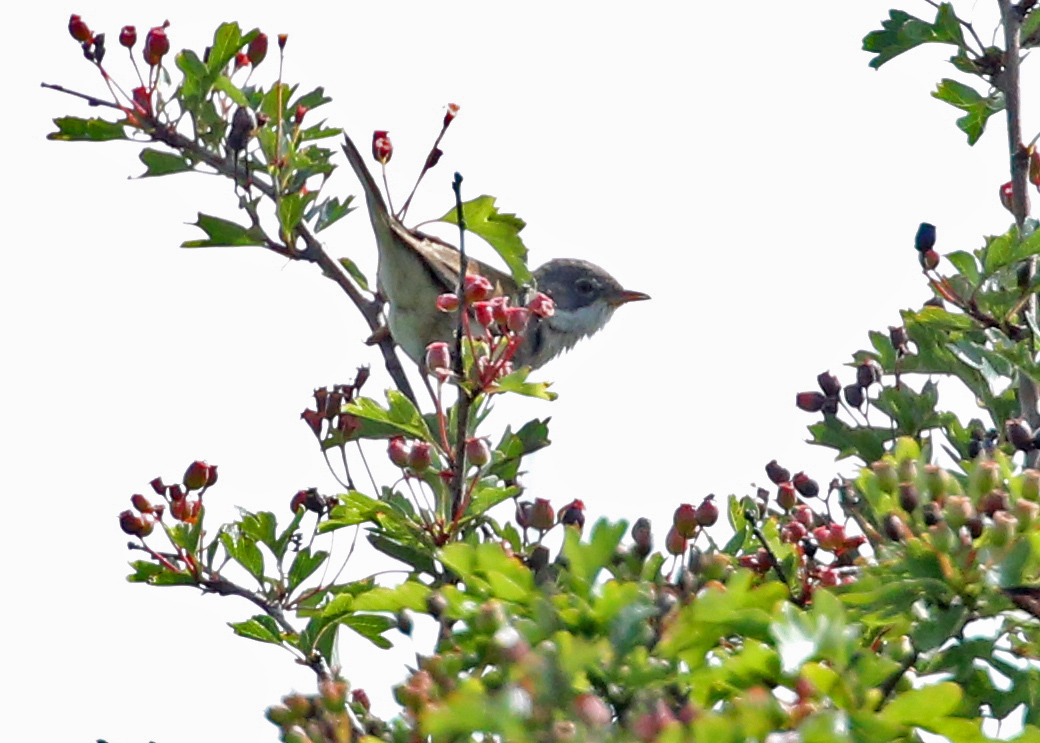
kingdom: Animalia
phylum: Chordata
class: Aves
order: Passeriformes
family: Sylviidae
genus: Sylvia
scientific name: Sylvia communis
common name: Common whitethroat
